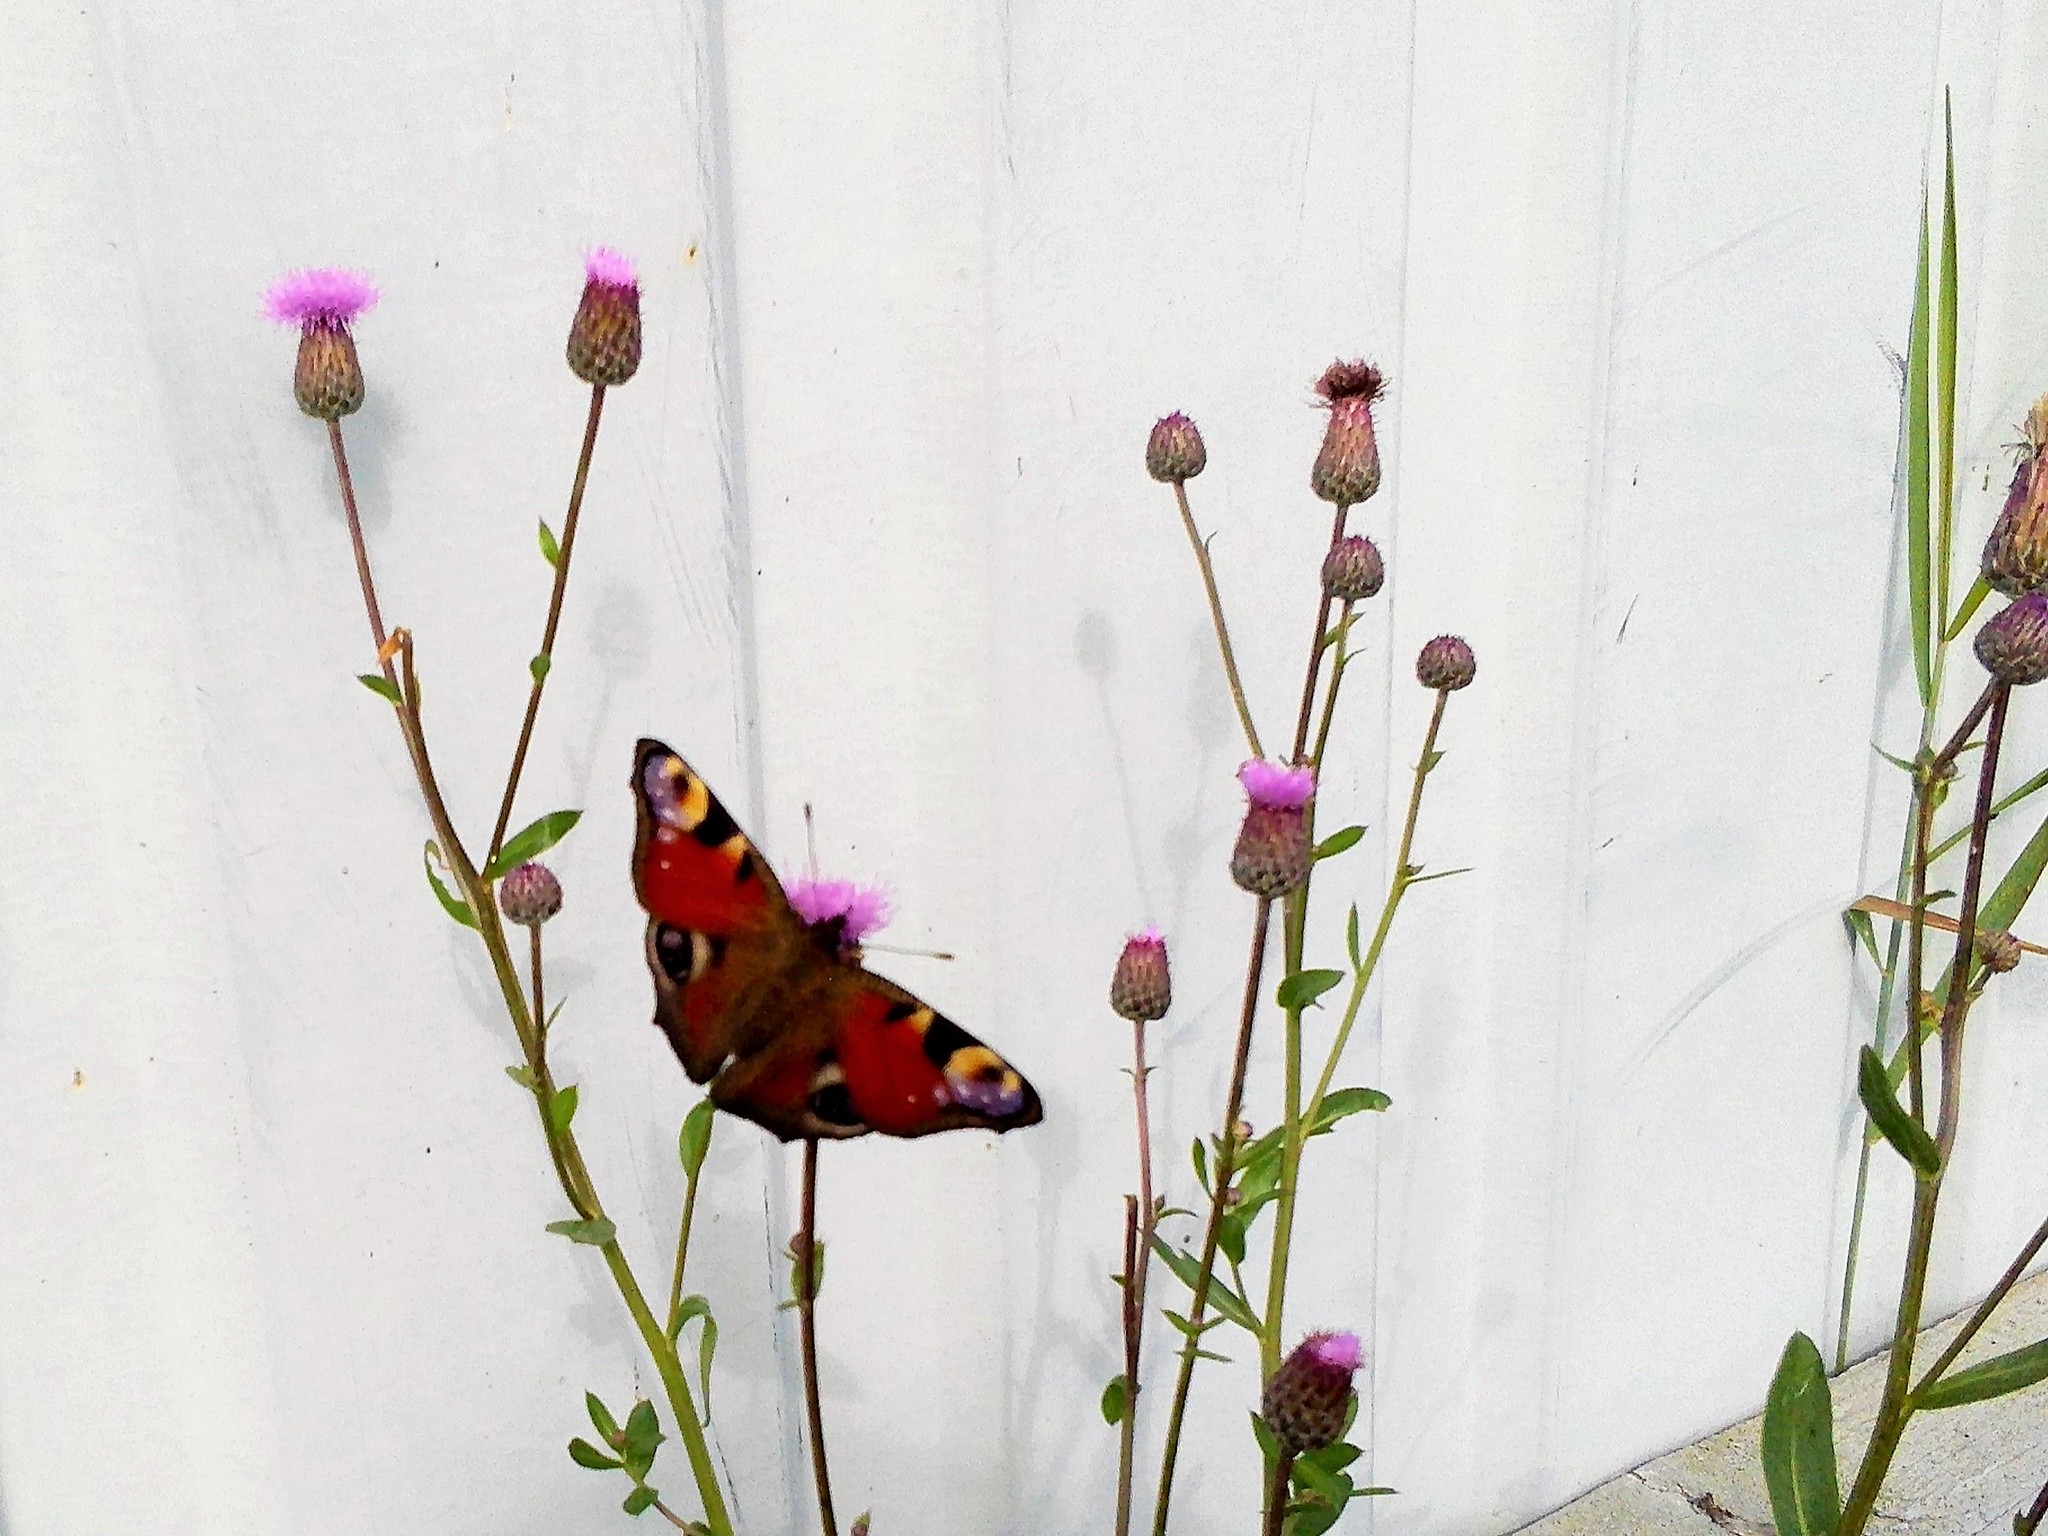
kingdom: Animalia
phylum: Arthropoda
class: Insecta
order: Lepidoptera
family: Nymphalidae
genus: Aglais
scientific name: Aglais io
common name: Peacock
